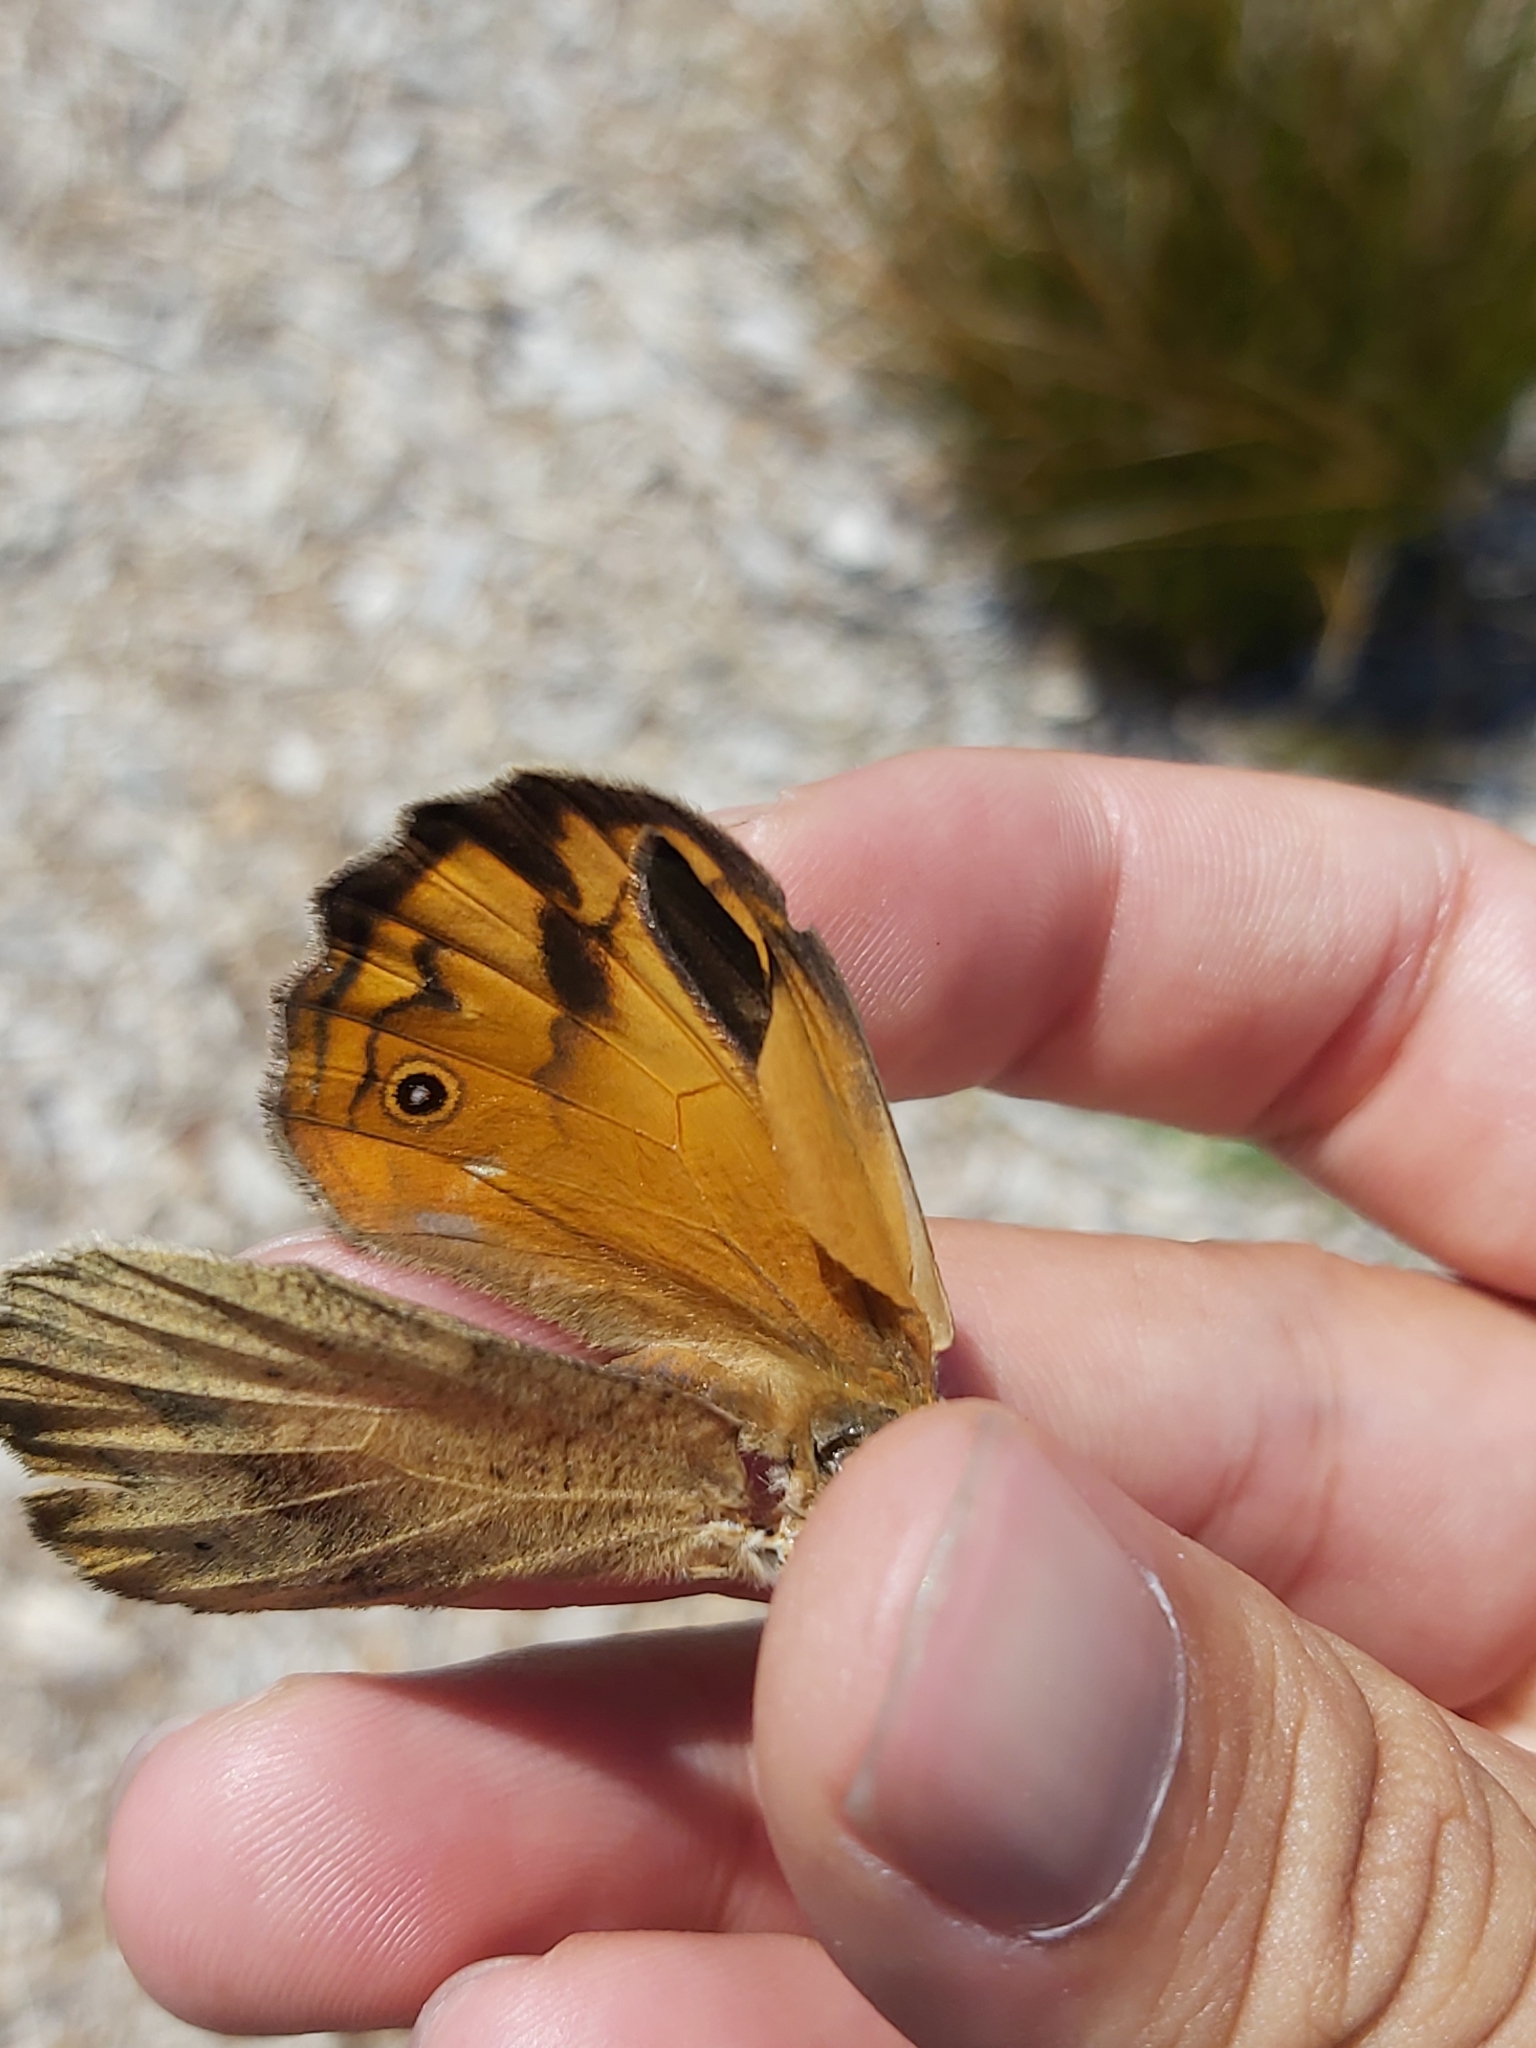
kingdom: Animalia
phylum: Arthropoda
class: Insecta
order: Lepidoptera
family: Nymphalidae
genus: Heteronympha
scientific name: Heteronympha merope
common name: Common brown
